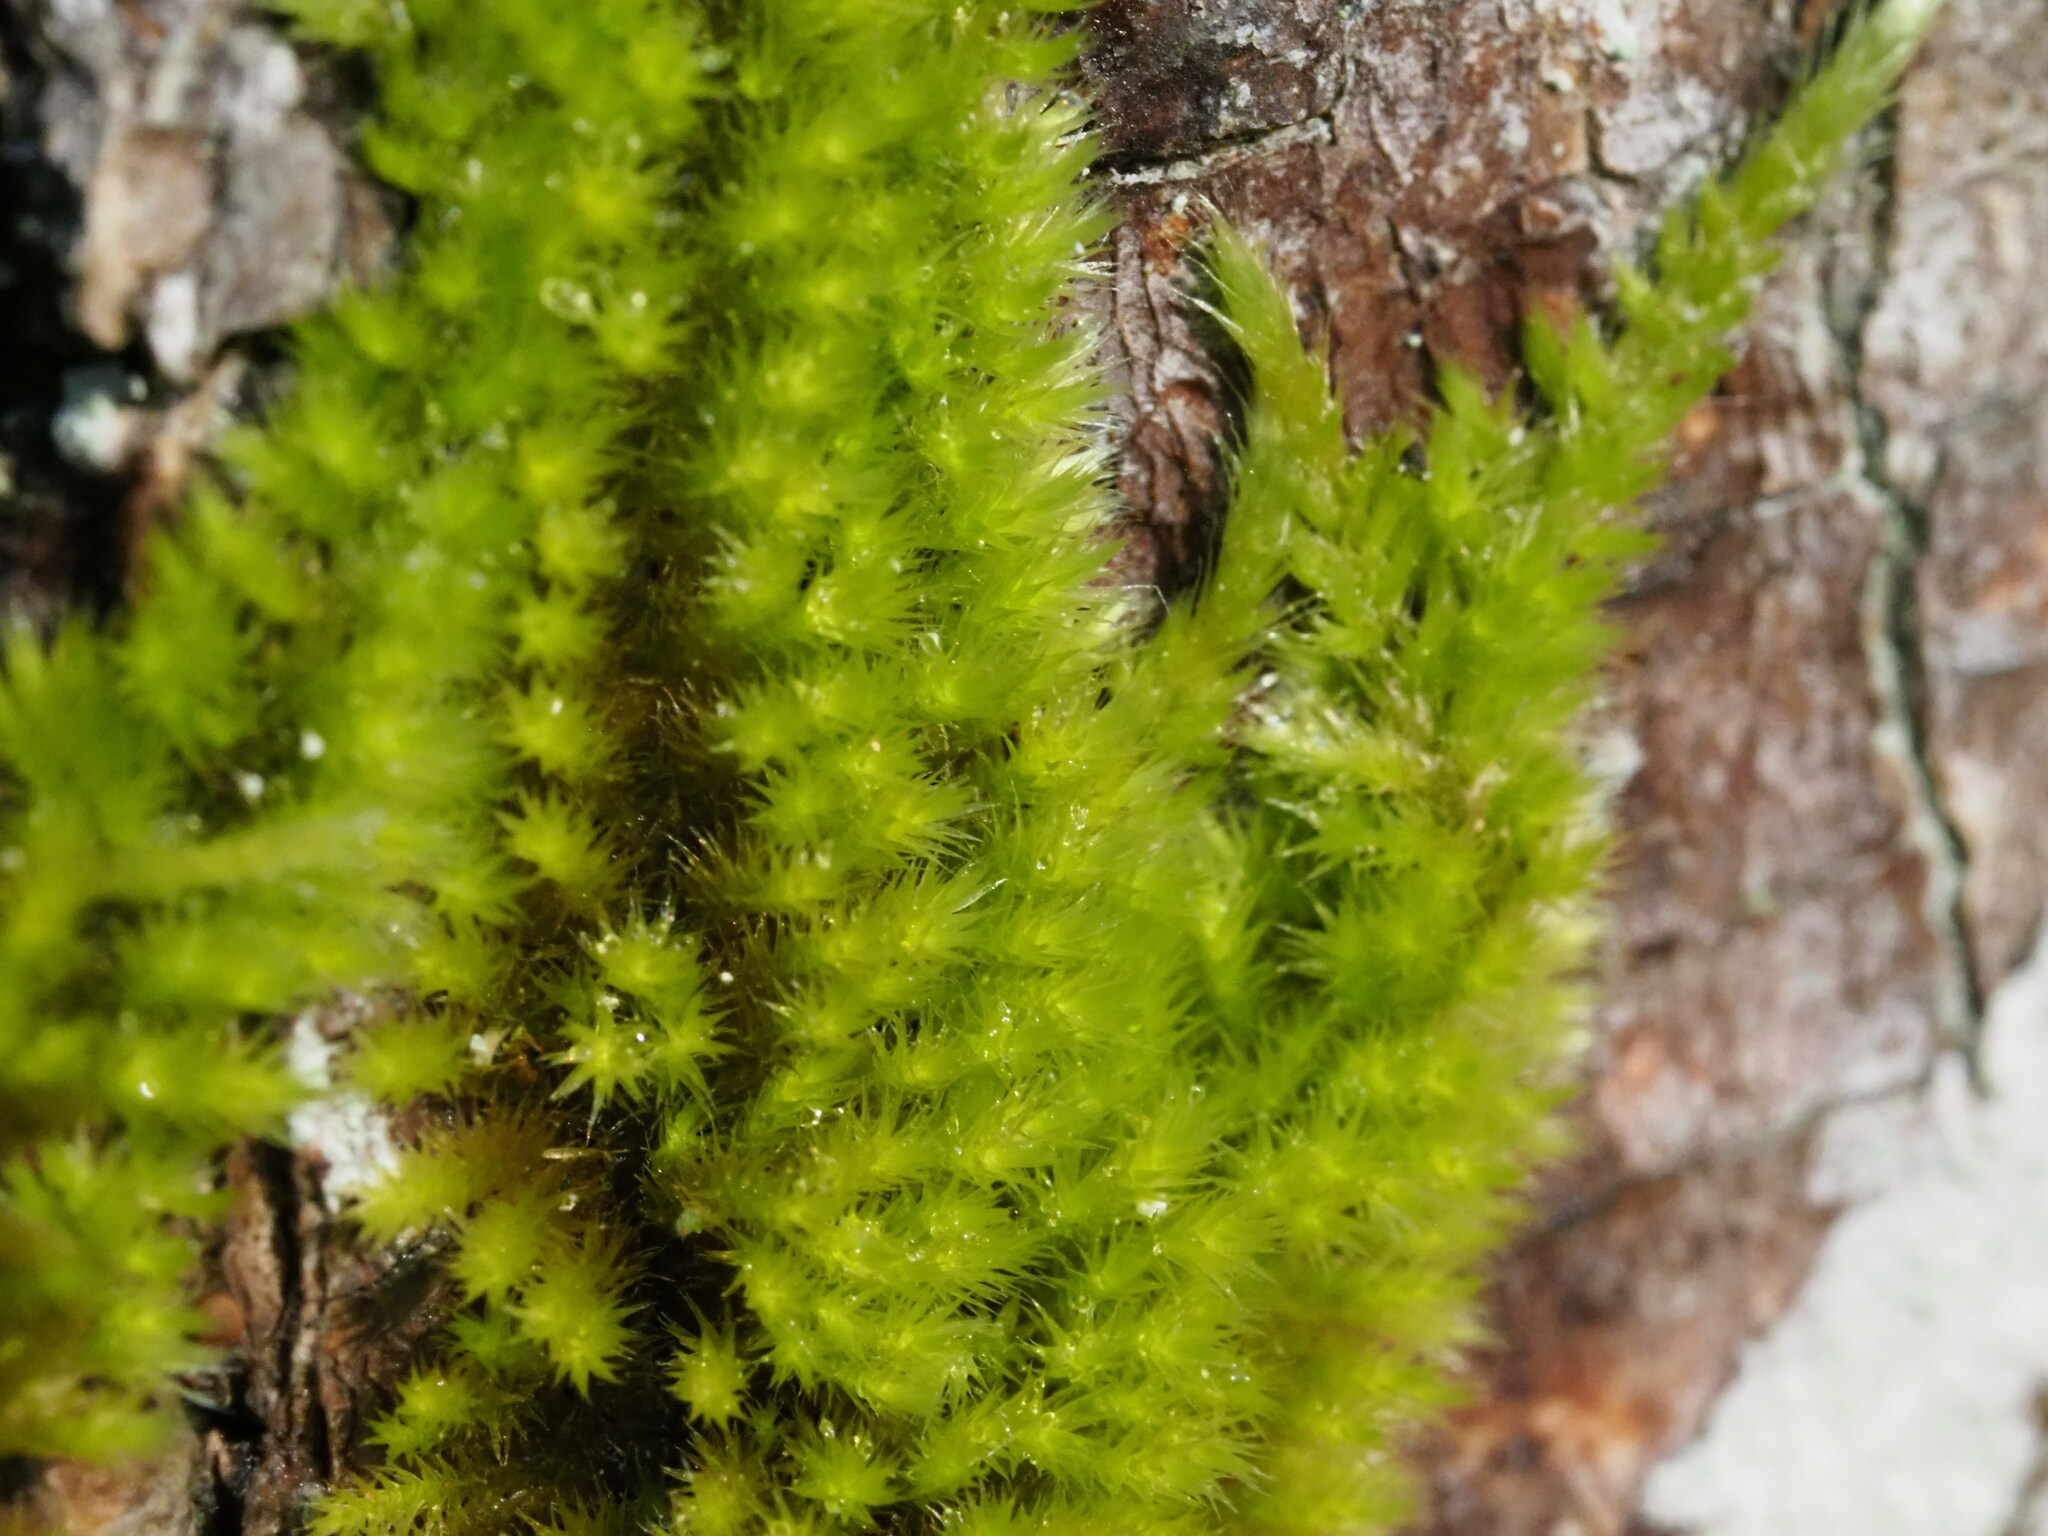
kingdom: Plantae
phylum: Bryophyta
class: Bryopsida
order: Hypnales
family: Brachytheciaceae
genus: Homalothecium
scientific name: Homalothecium nuttallii
